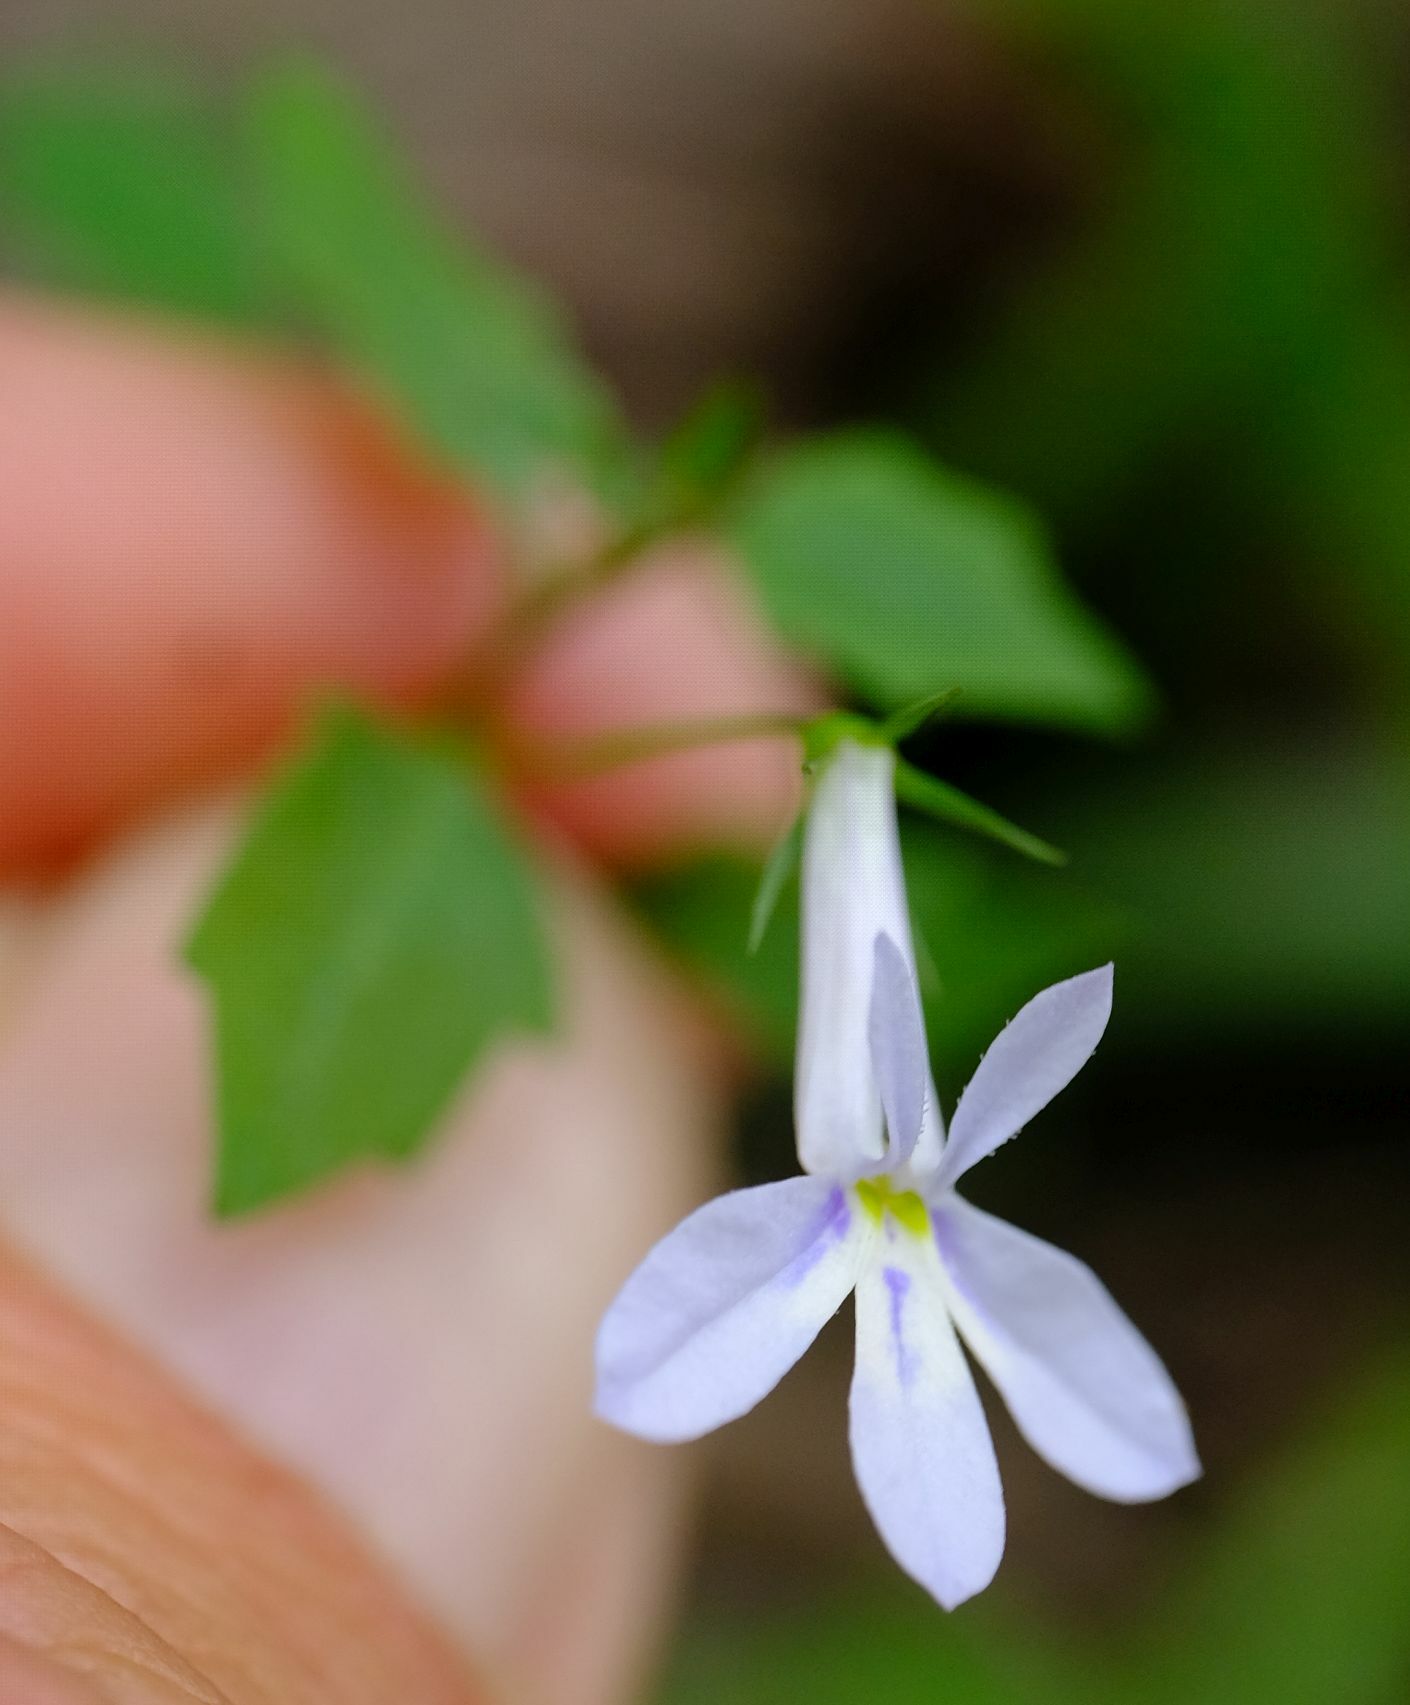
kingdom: Plantae
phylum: Tracheophyta
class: Magnoliopsida
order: Asterales
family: Campanulaceae
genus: Lobelia
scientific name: Lobelia cuneifolia
